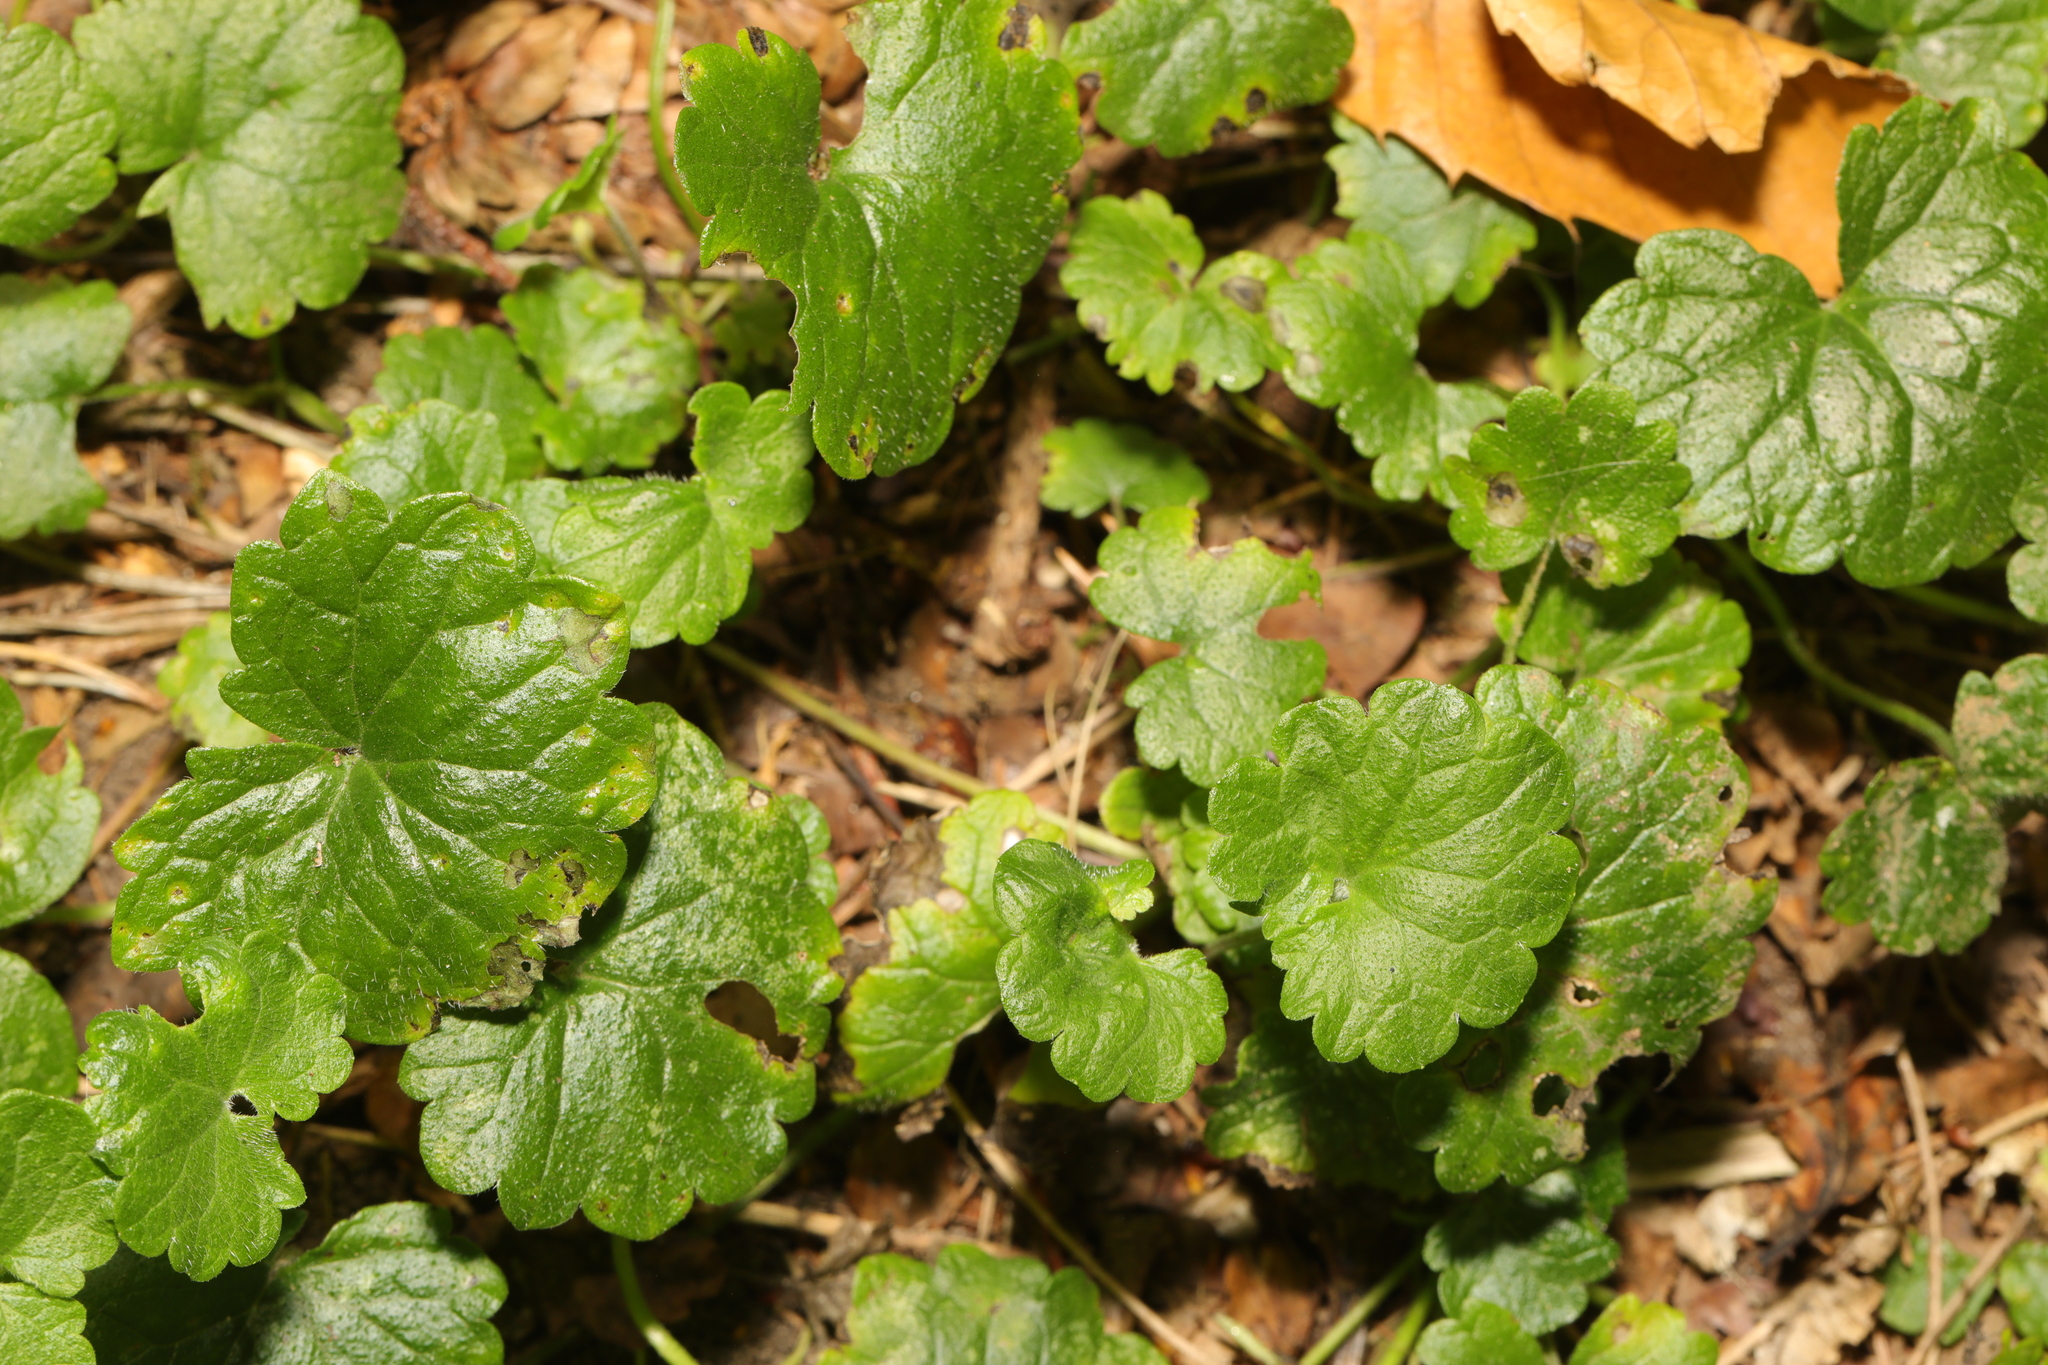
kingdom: Plantae
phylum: Tracheophyta
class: Magnoliopsida
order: Lamiales
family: Lamiaceae
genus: Glechoma
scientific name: Glechoma hederacea
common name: Ground ivy
